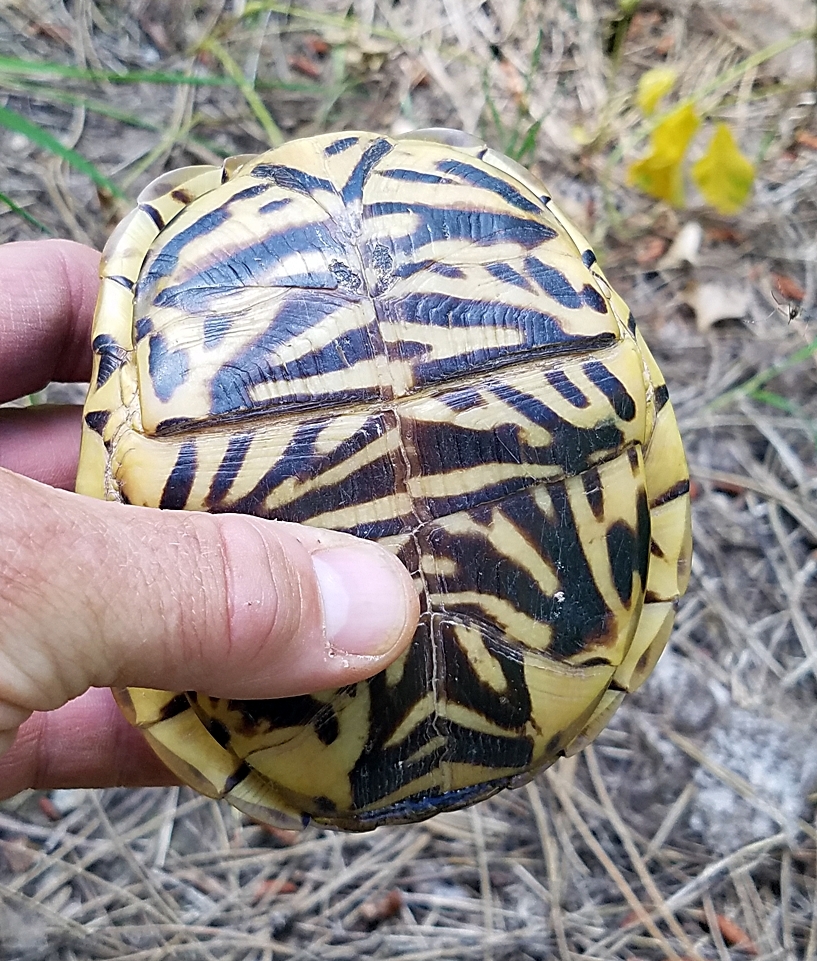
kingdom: Animalia
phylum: Chordata
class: Testudines
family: Emydidae
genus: Terrapene
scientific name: Terrapene ornata
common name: Western box turtle
